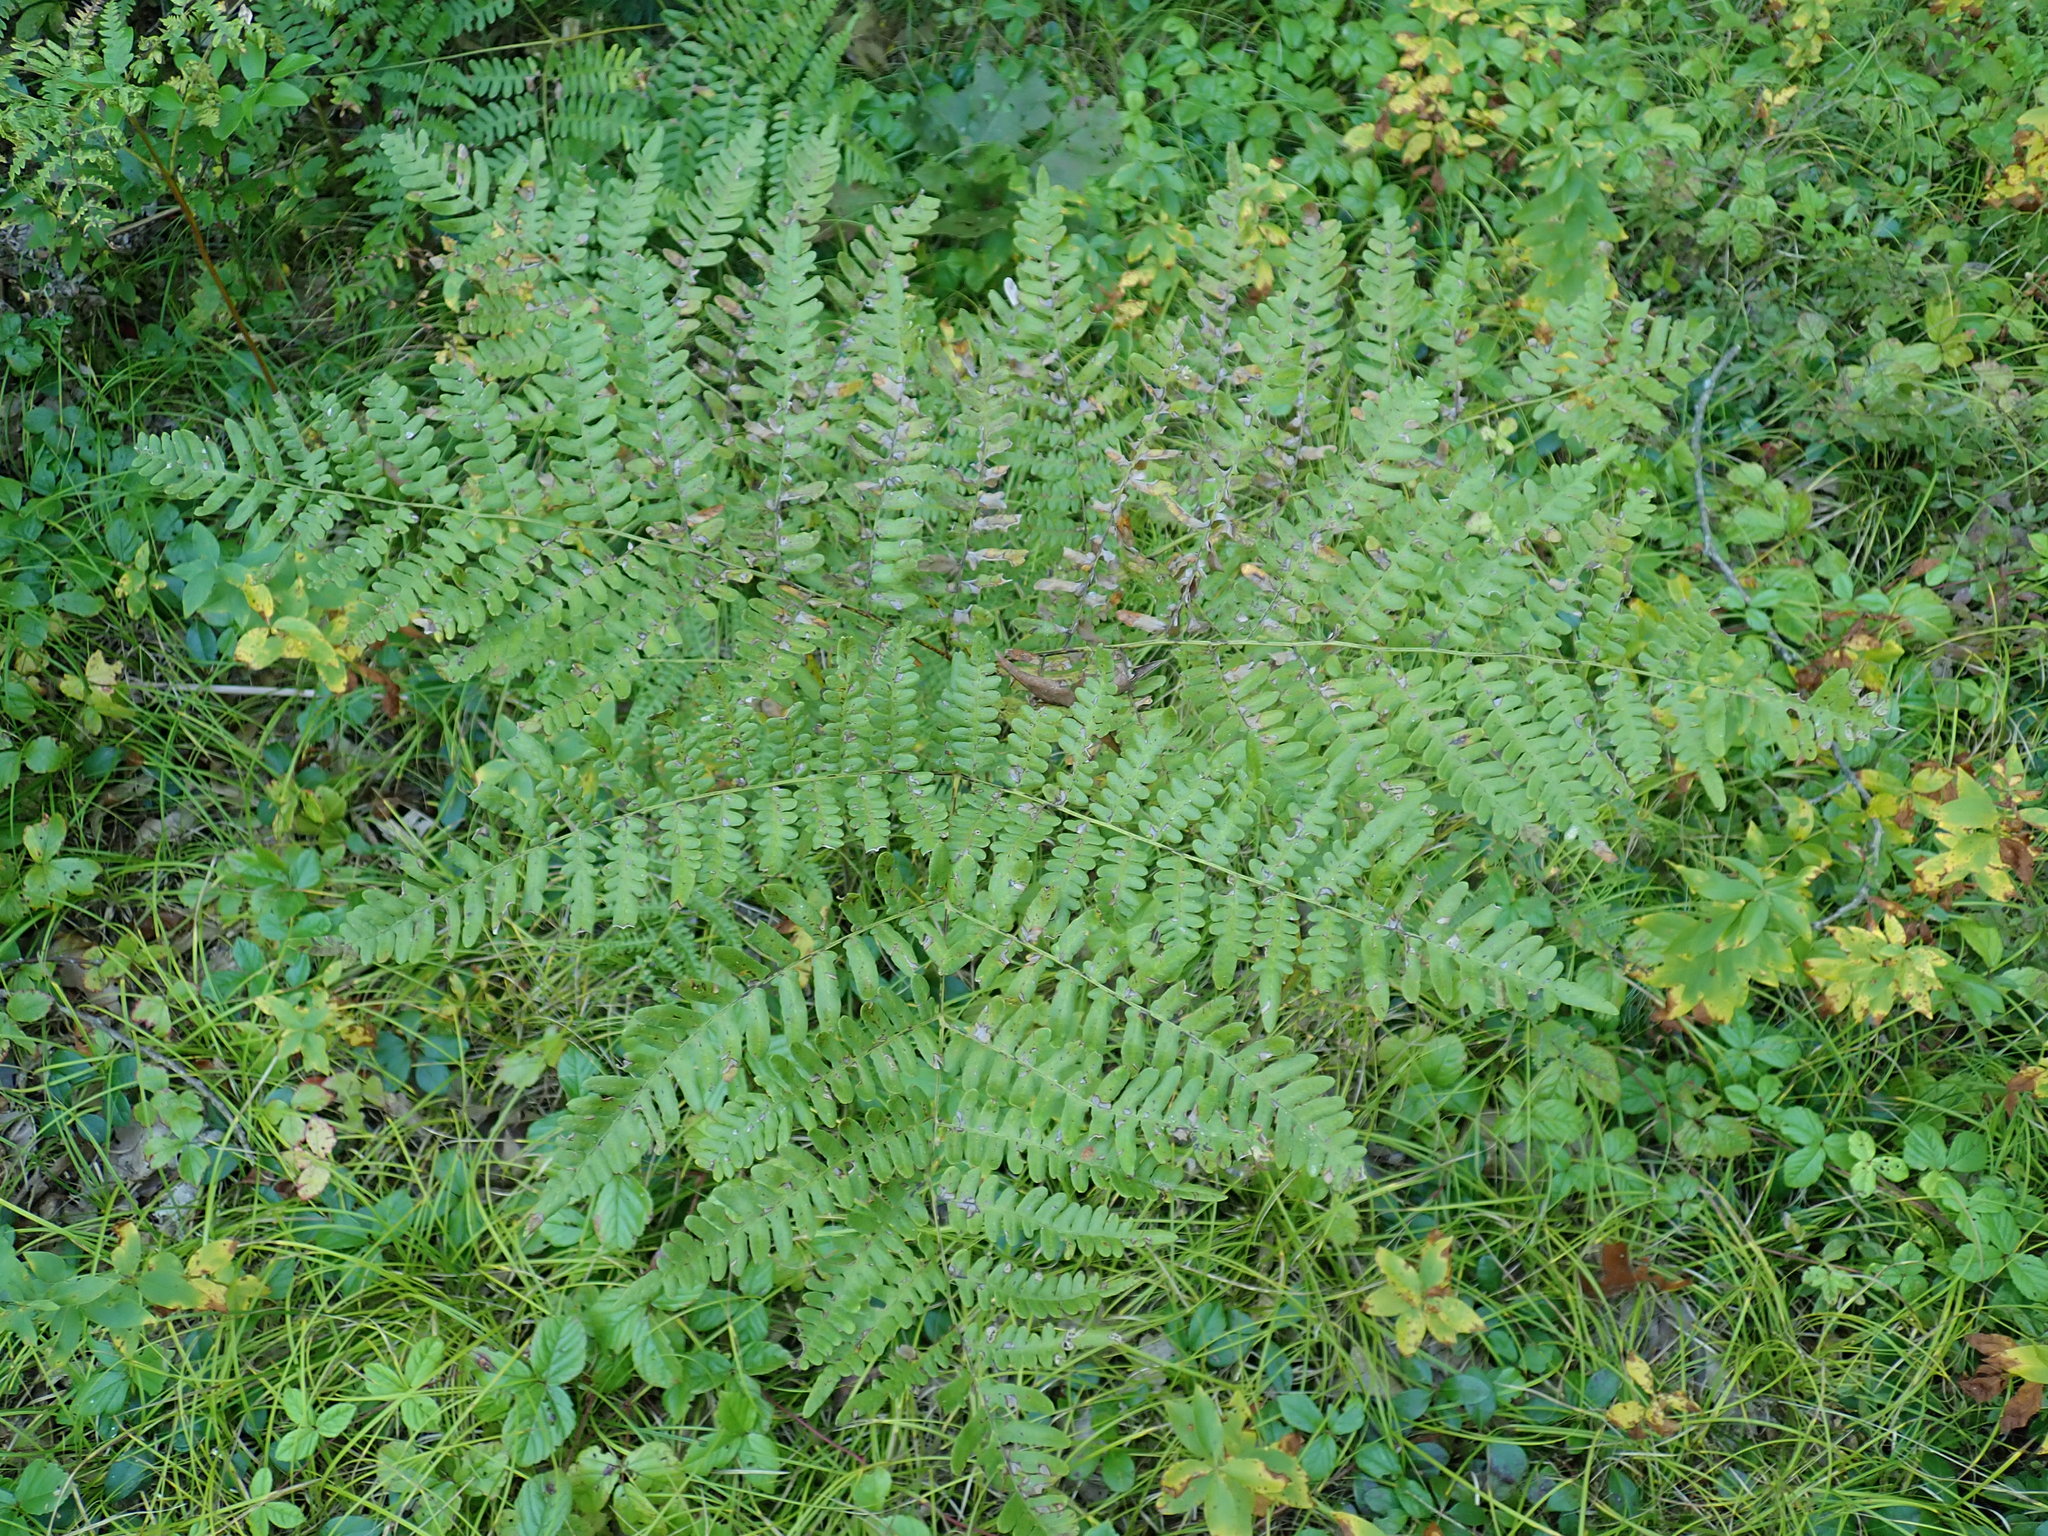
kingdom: Plantae
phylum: Tracheophyta
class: Polypodiopsida
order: Polypodiales
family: Dennstaedtiaceae
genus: Pteridium
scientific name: Pteridium aquilinum
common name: Bracken
